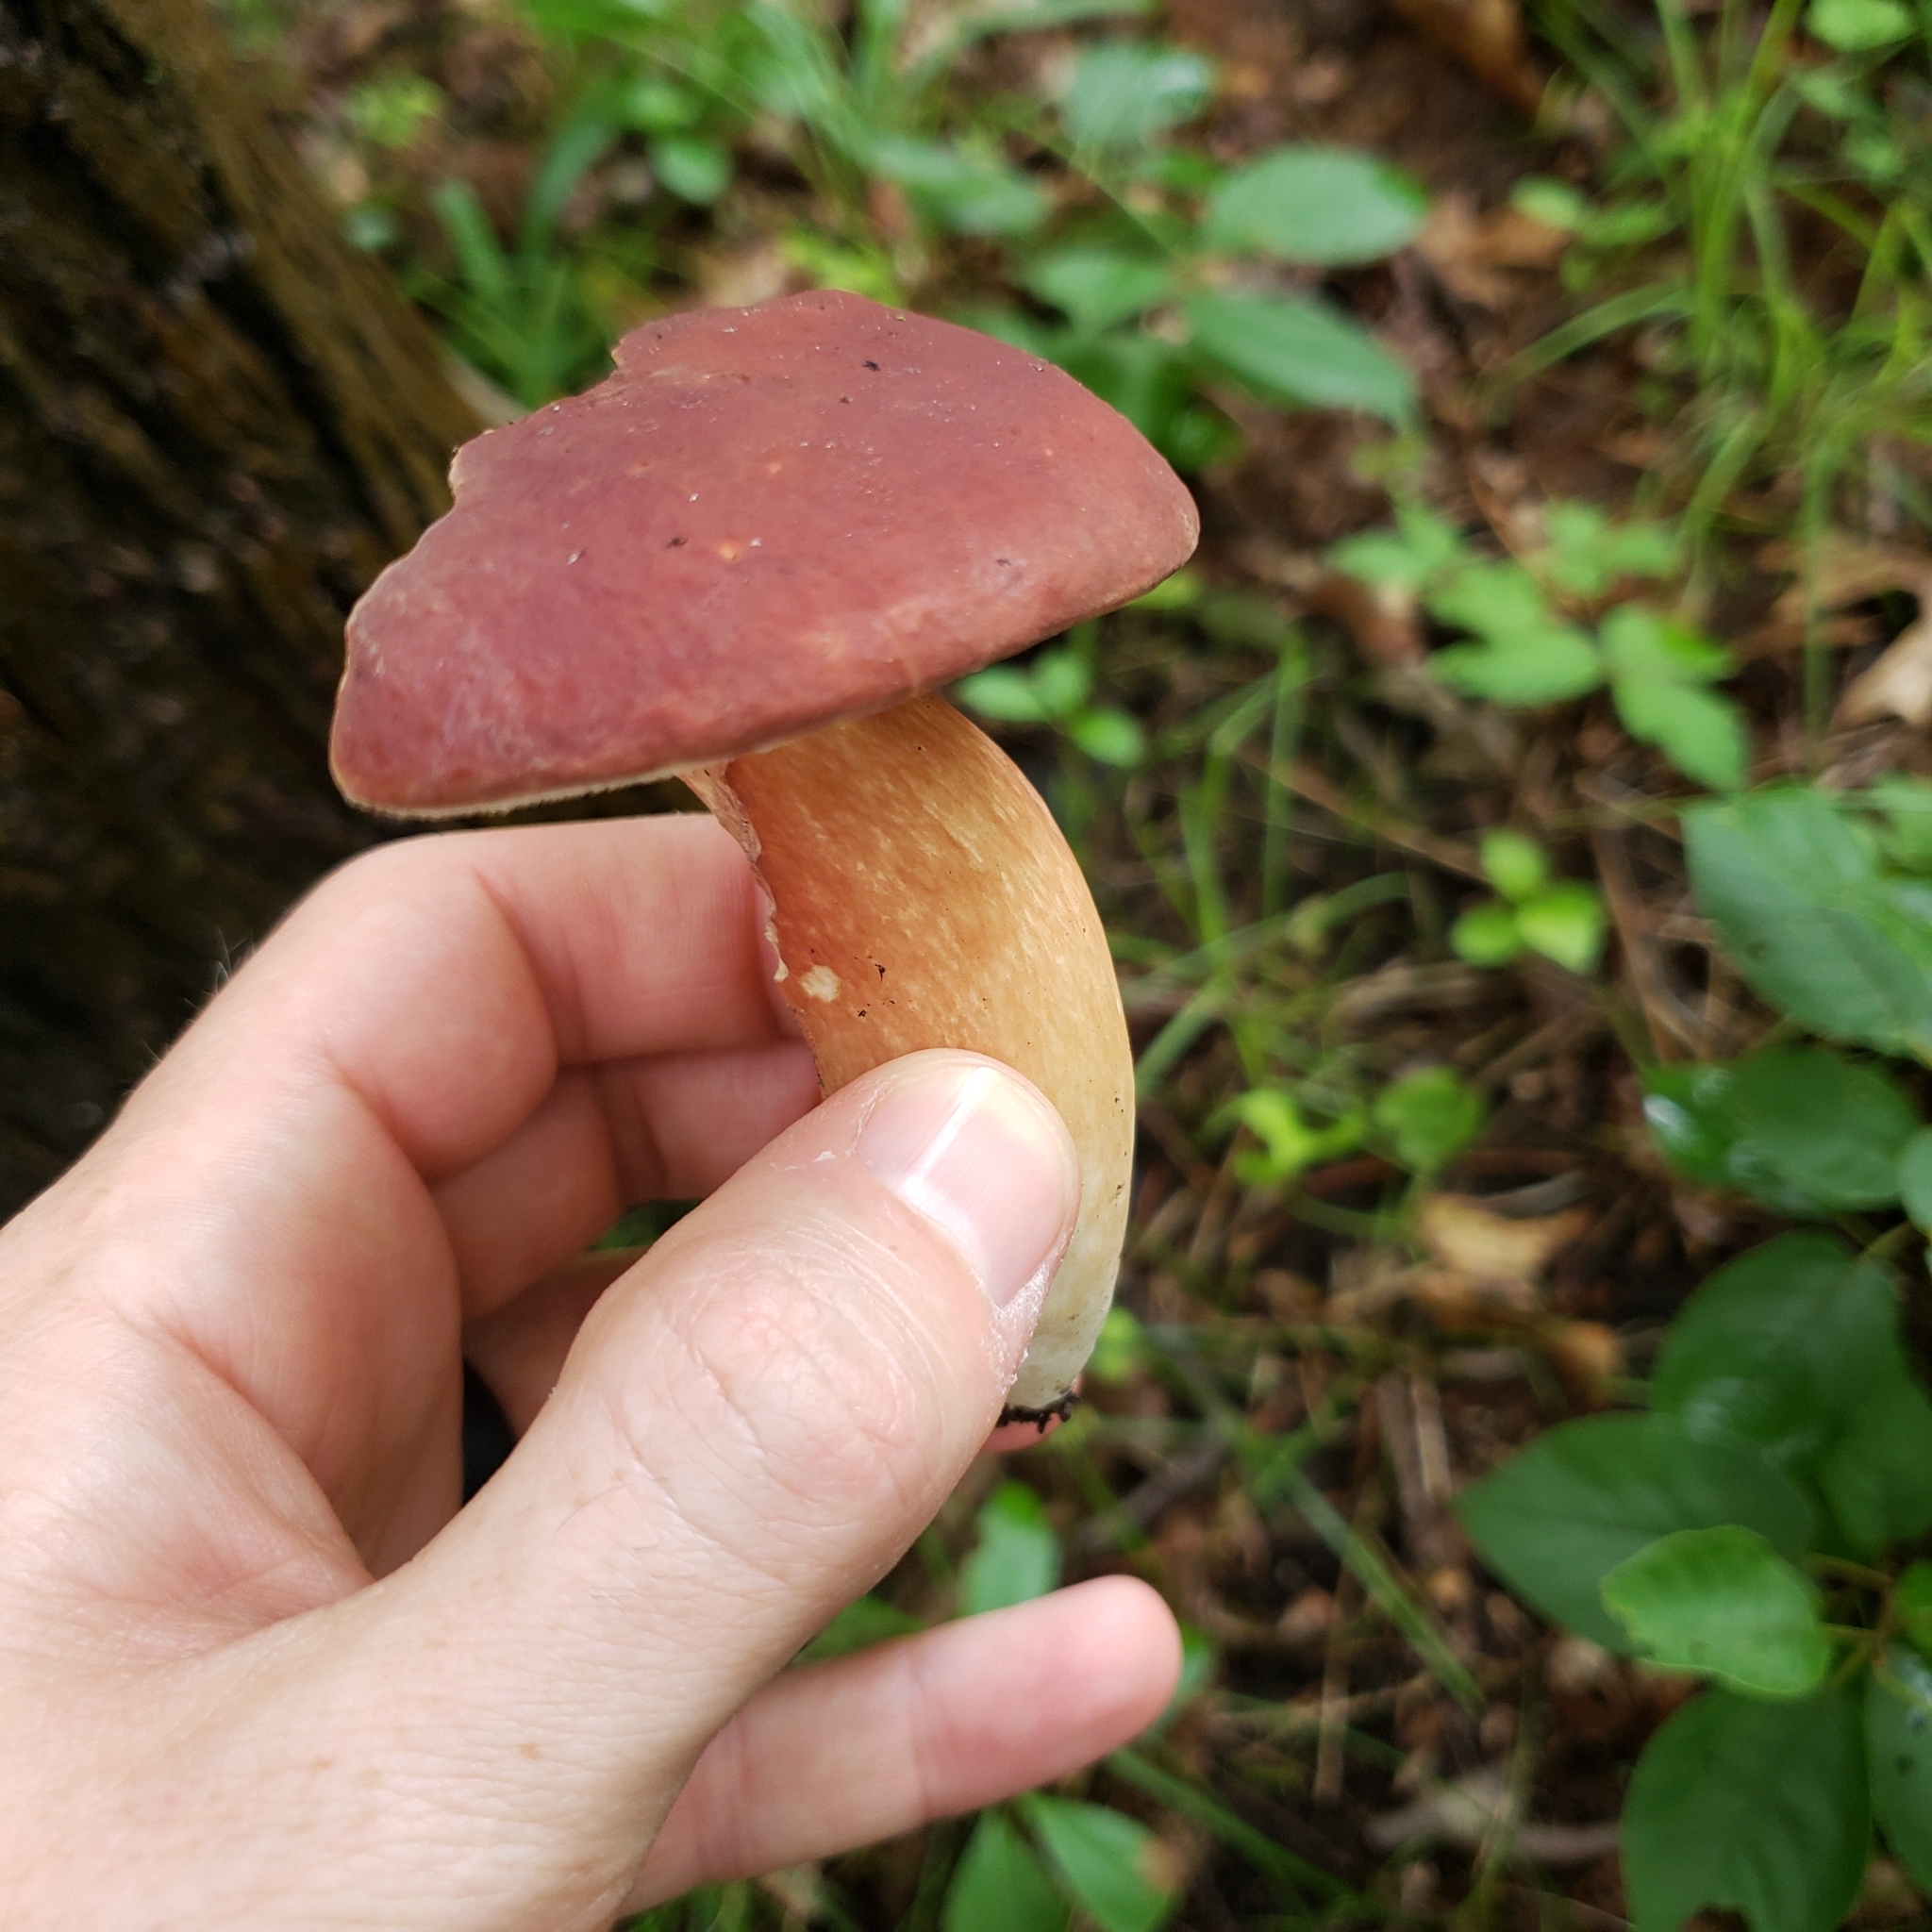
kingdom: Fungi
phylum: Basidiomycota
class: Agaricomycetes
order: Boletales
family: Boletaceae
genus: Xanthoconium
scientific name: Xanthoconium purpureum
